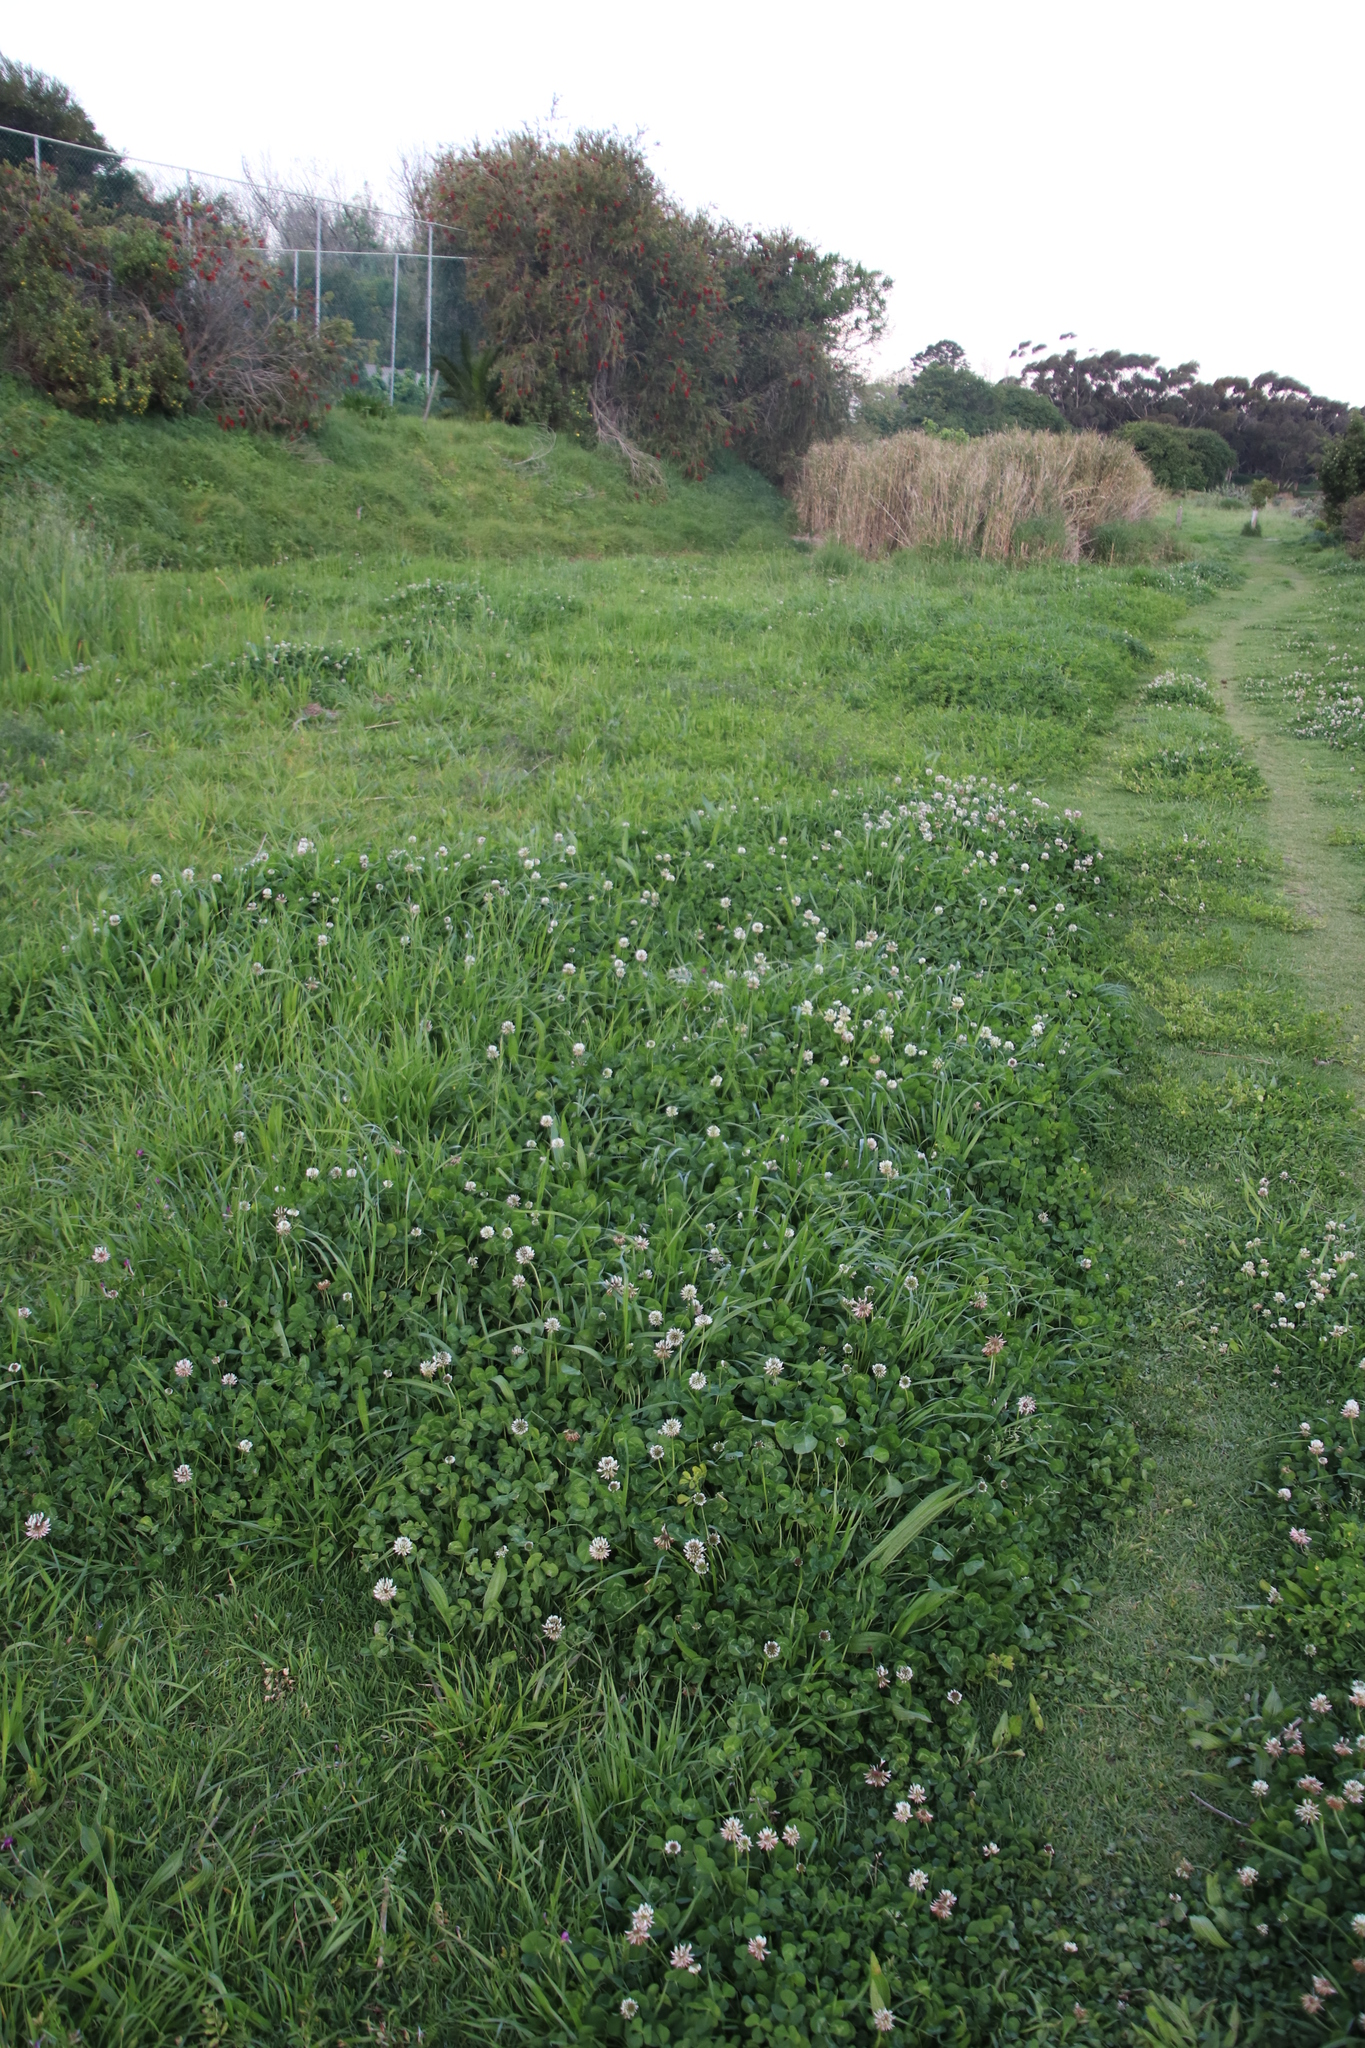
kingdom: Plantae
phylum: Tracheophyta
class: Magnoliopsida
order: Fabales
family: Fabaceae
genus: Trifolium
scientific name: Trifolium repens
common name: White clover
